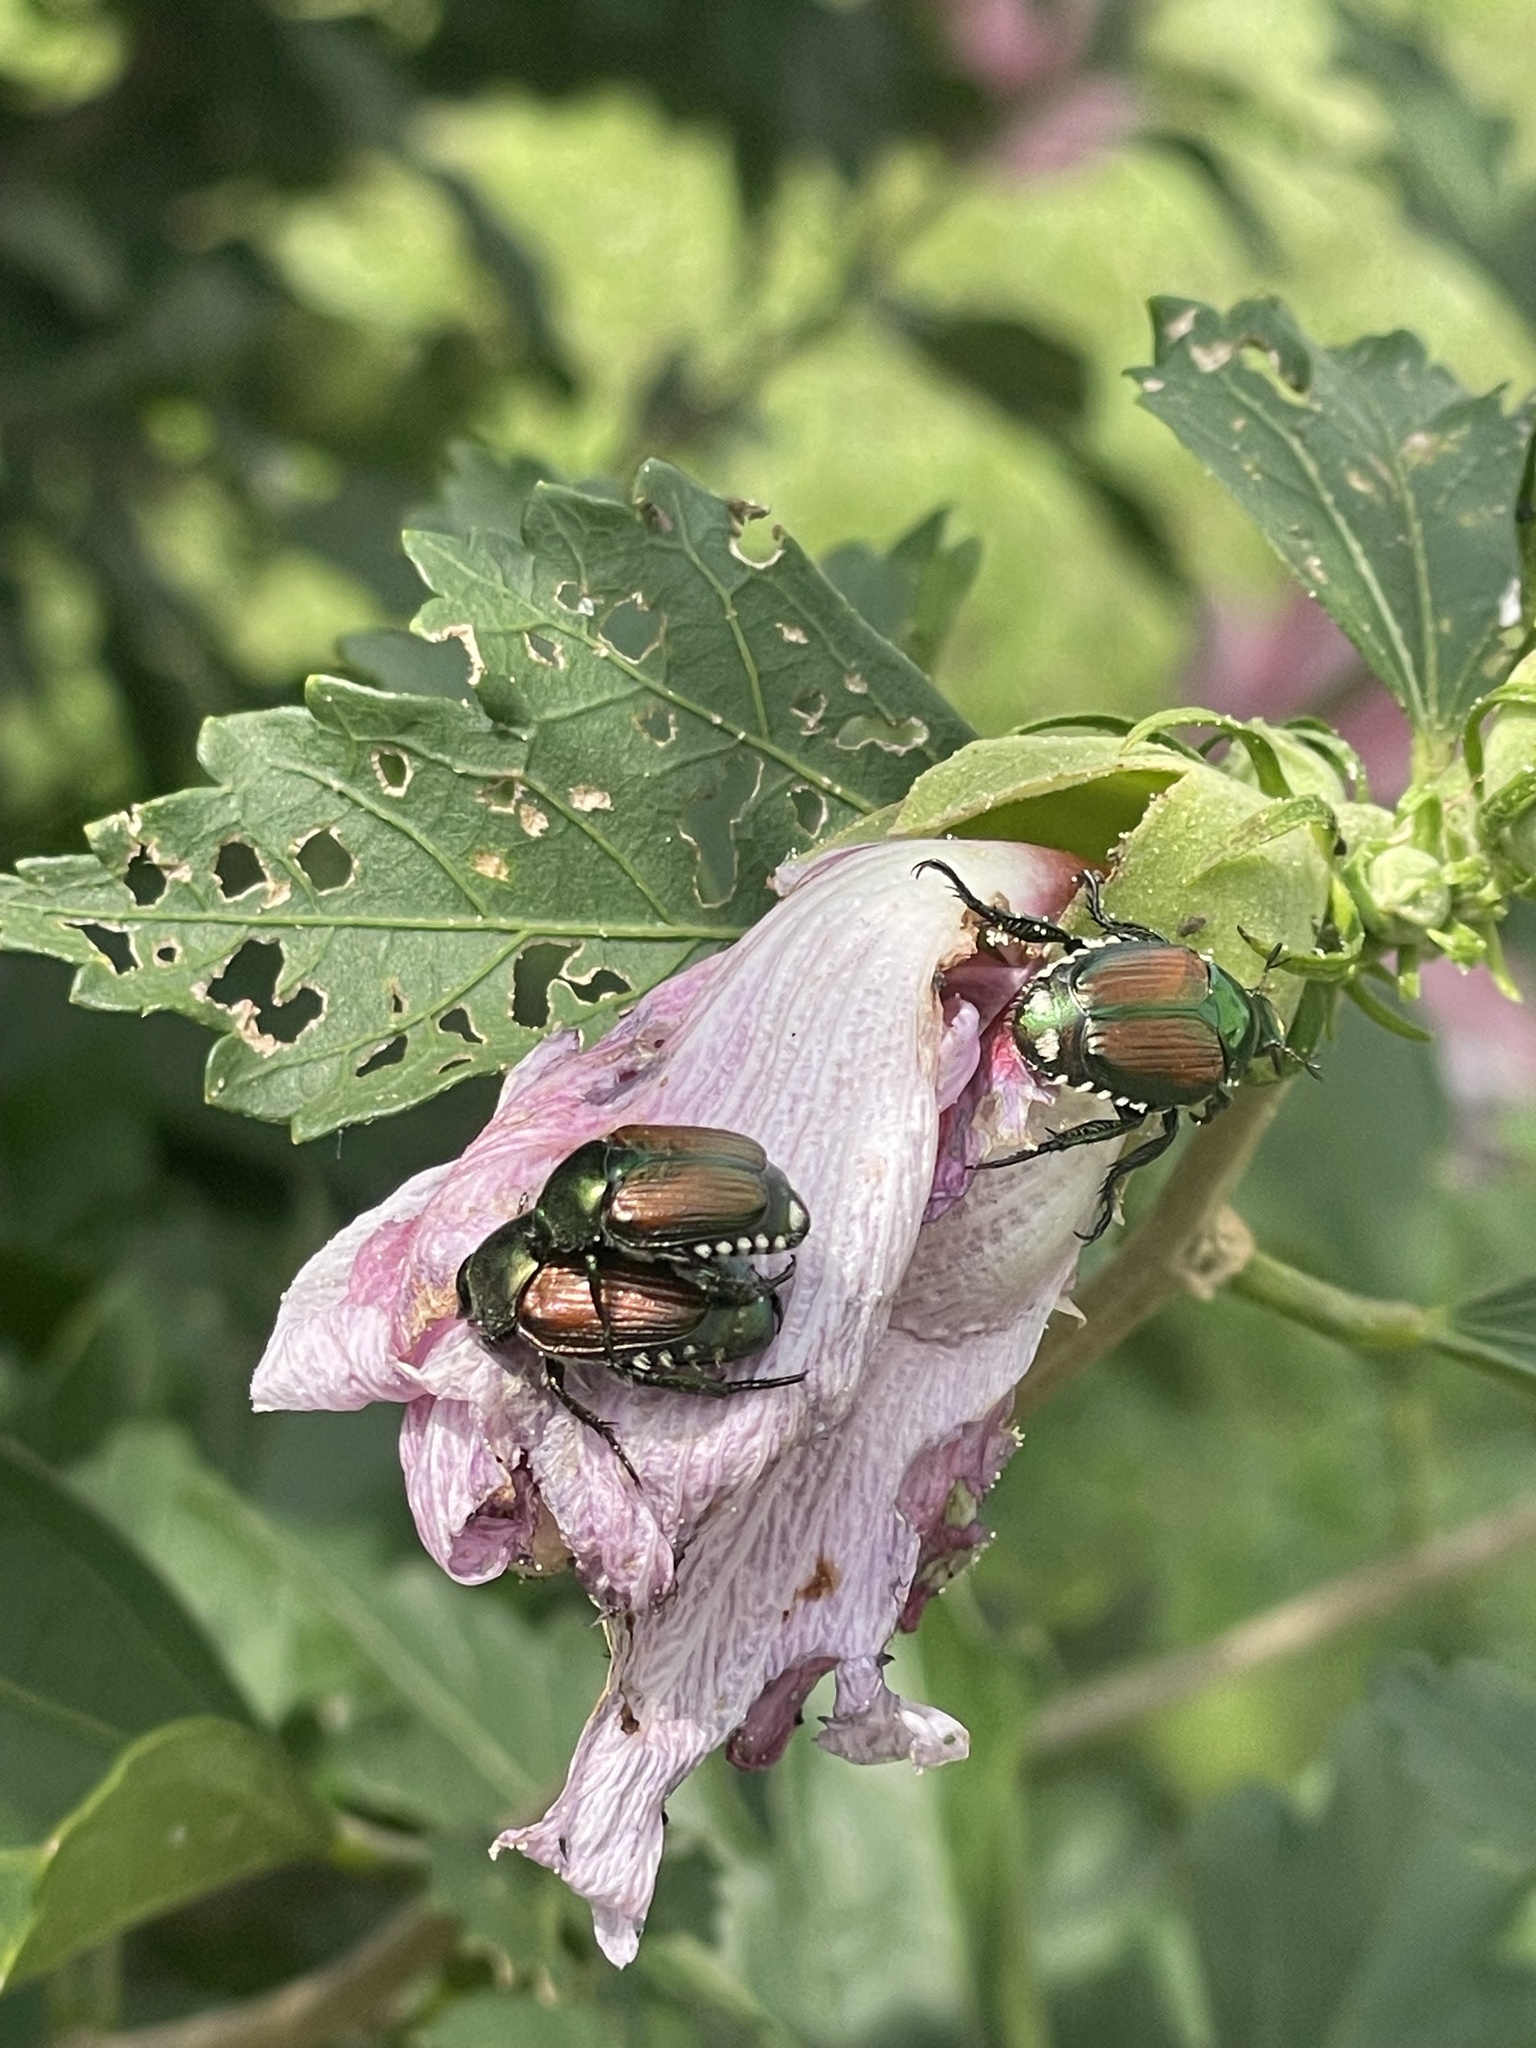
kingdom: Animalia
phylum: Arthropoda
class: Insecta
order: Coleoptera
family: Scarabaeidae
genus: Popillia
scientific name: Popillia japonica
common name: Japanese beetle
